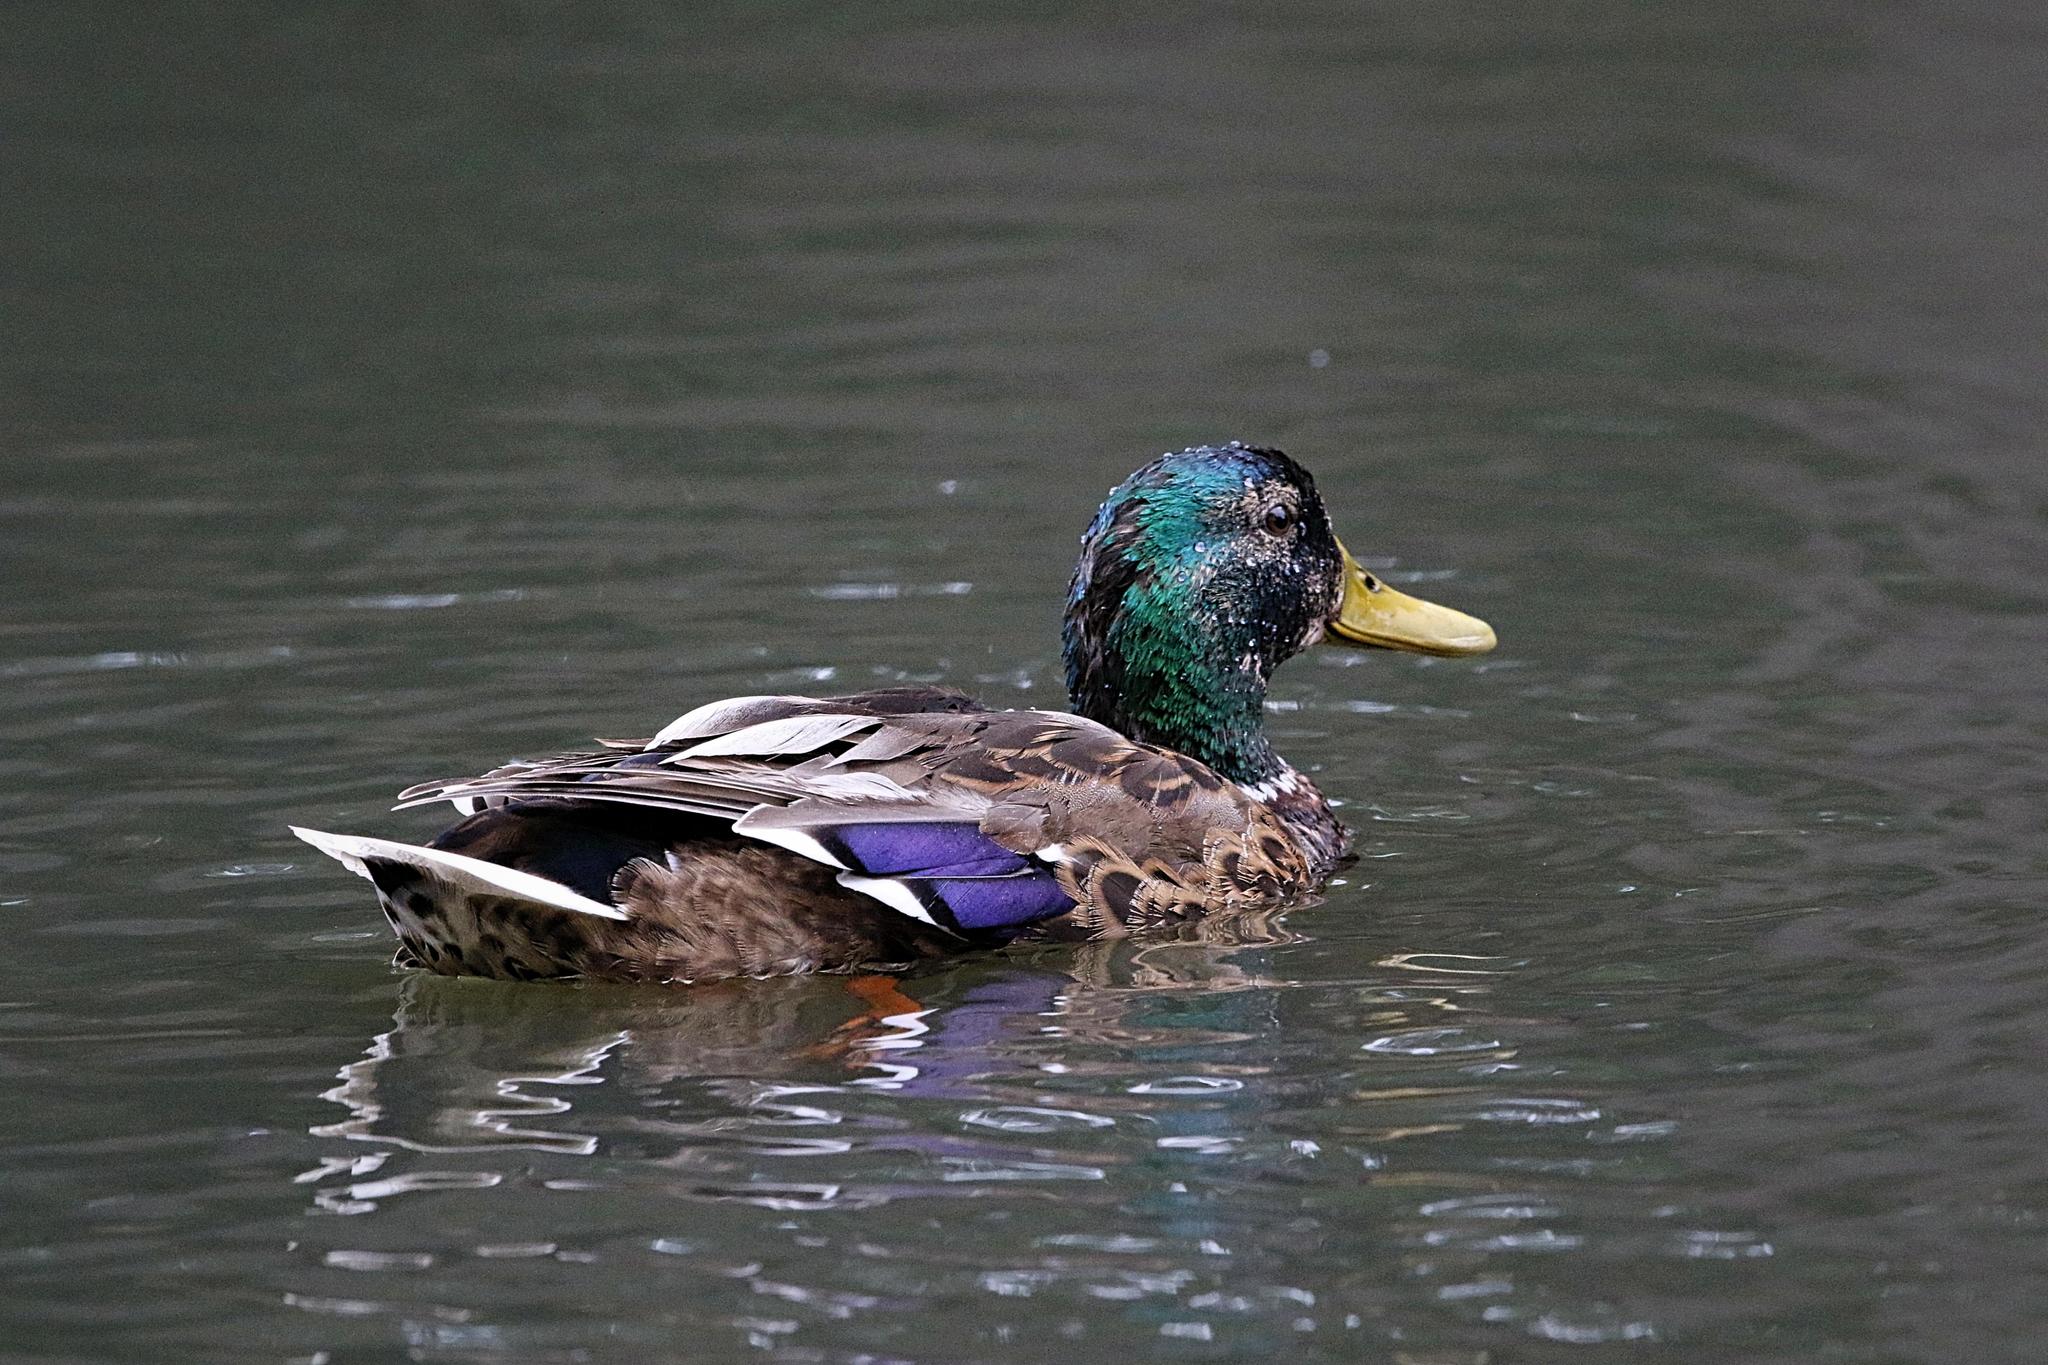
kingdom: Animalia
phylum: Chordata
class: Aves
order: Anseriformes
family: Anatidae
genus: Anas
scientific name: Anas platyrhynchos
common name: Mallard
